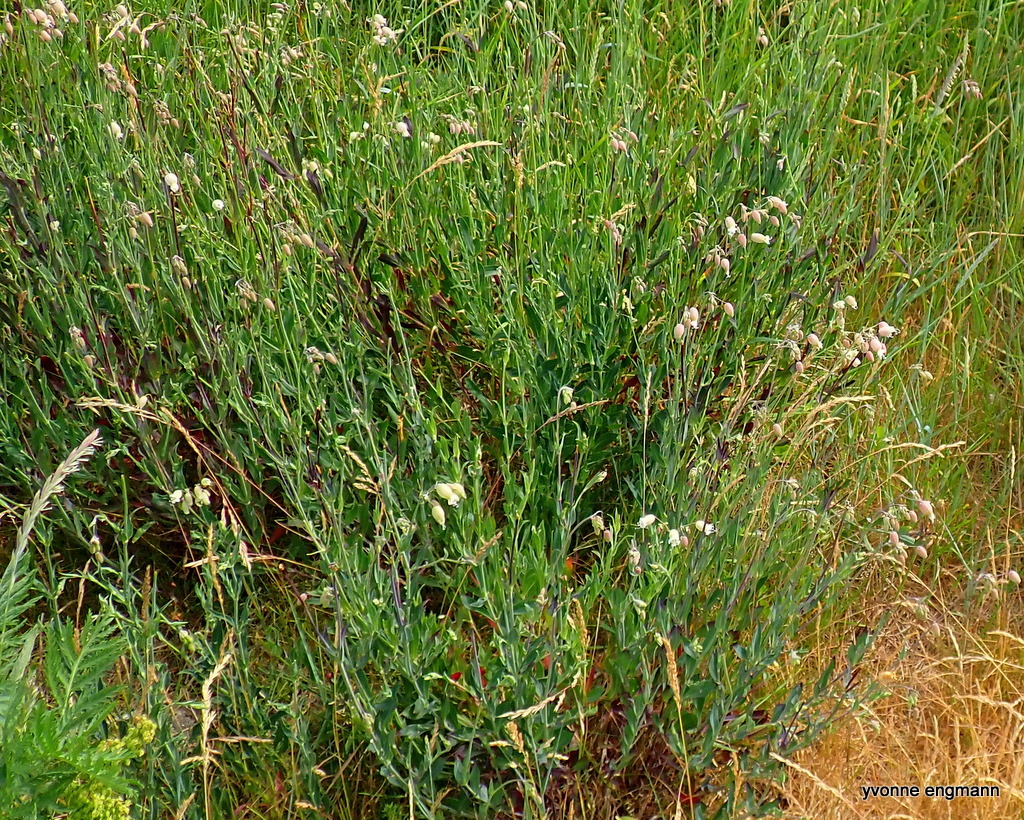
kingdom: Plantae
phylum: Tracheophyta
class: Magnoliopsida
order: Caryophyllales
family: Caryophyllaceae
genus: Silene
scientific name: Silene vulgaris
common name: Bladder campion
